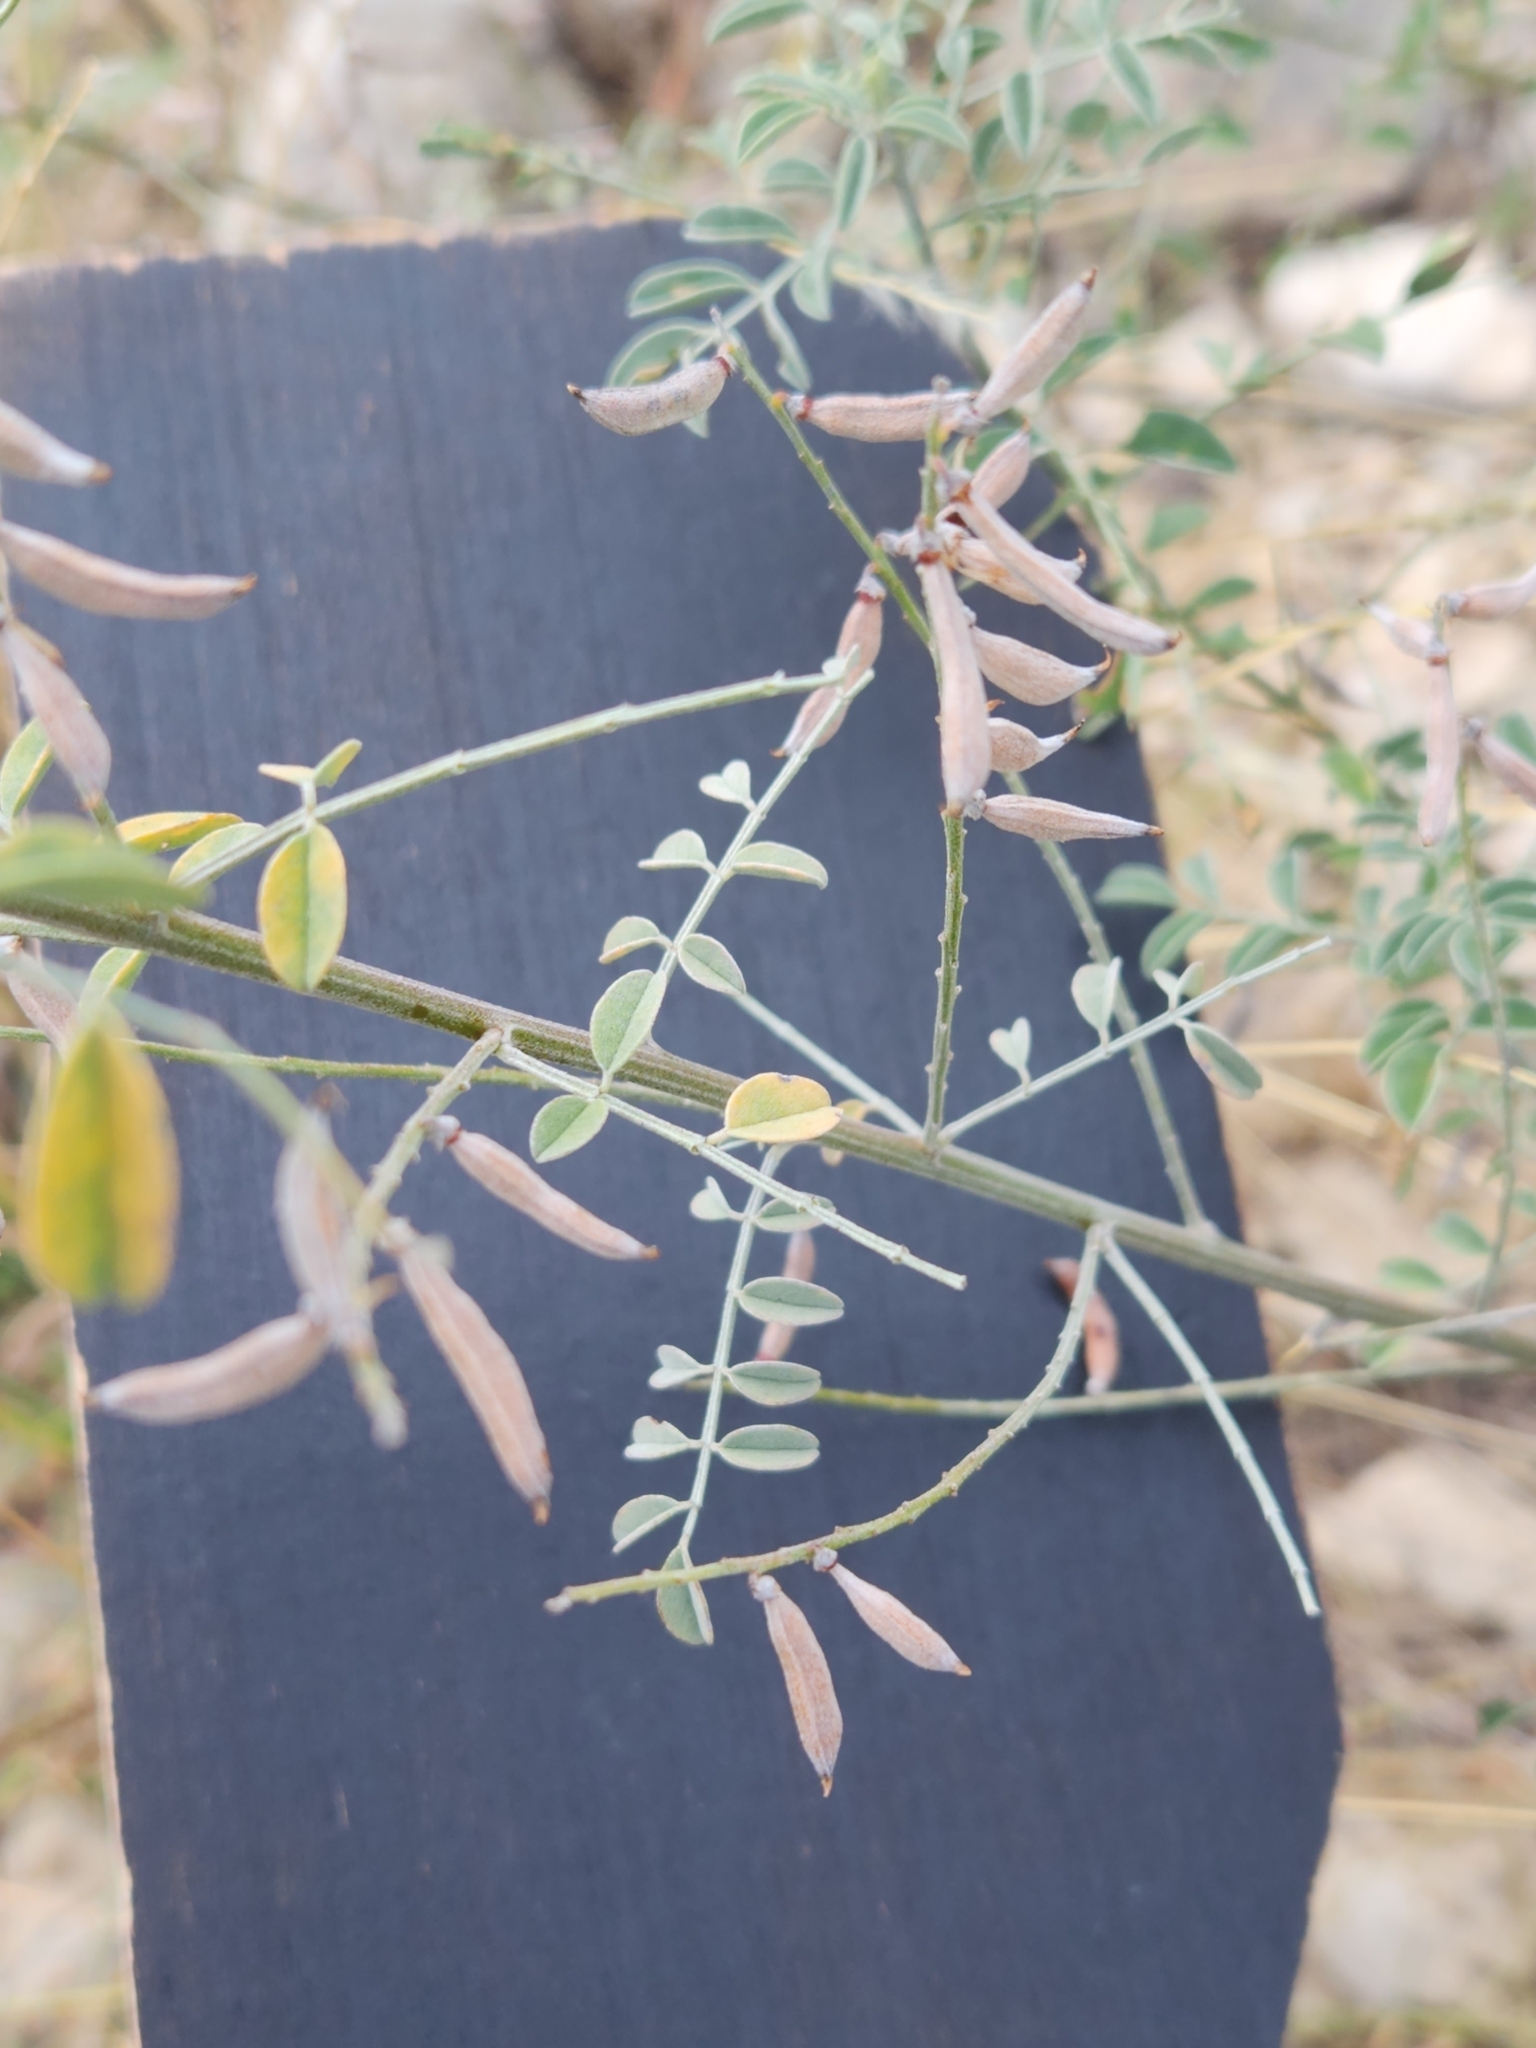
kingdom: Plantae
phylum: Tracheophyta
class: Magnoliopsida
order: Fabales
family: Fabaceae
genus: Indigofera
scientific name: Indigofera lindheimeriana
